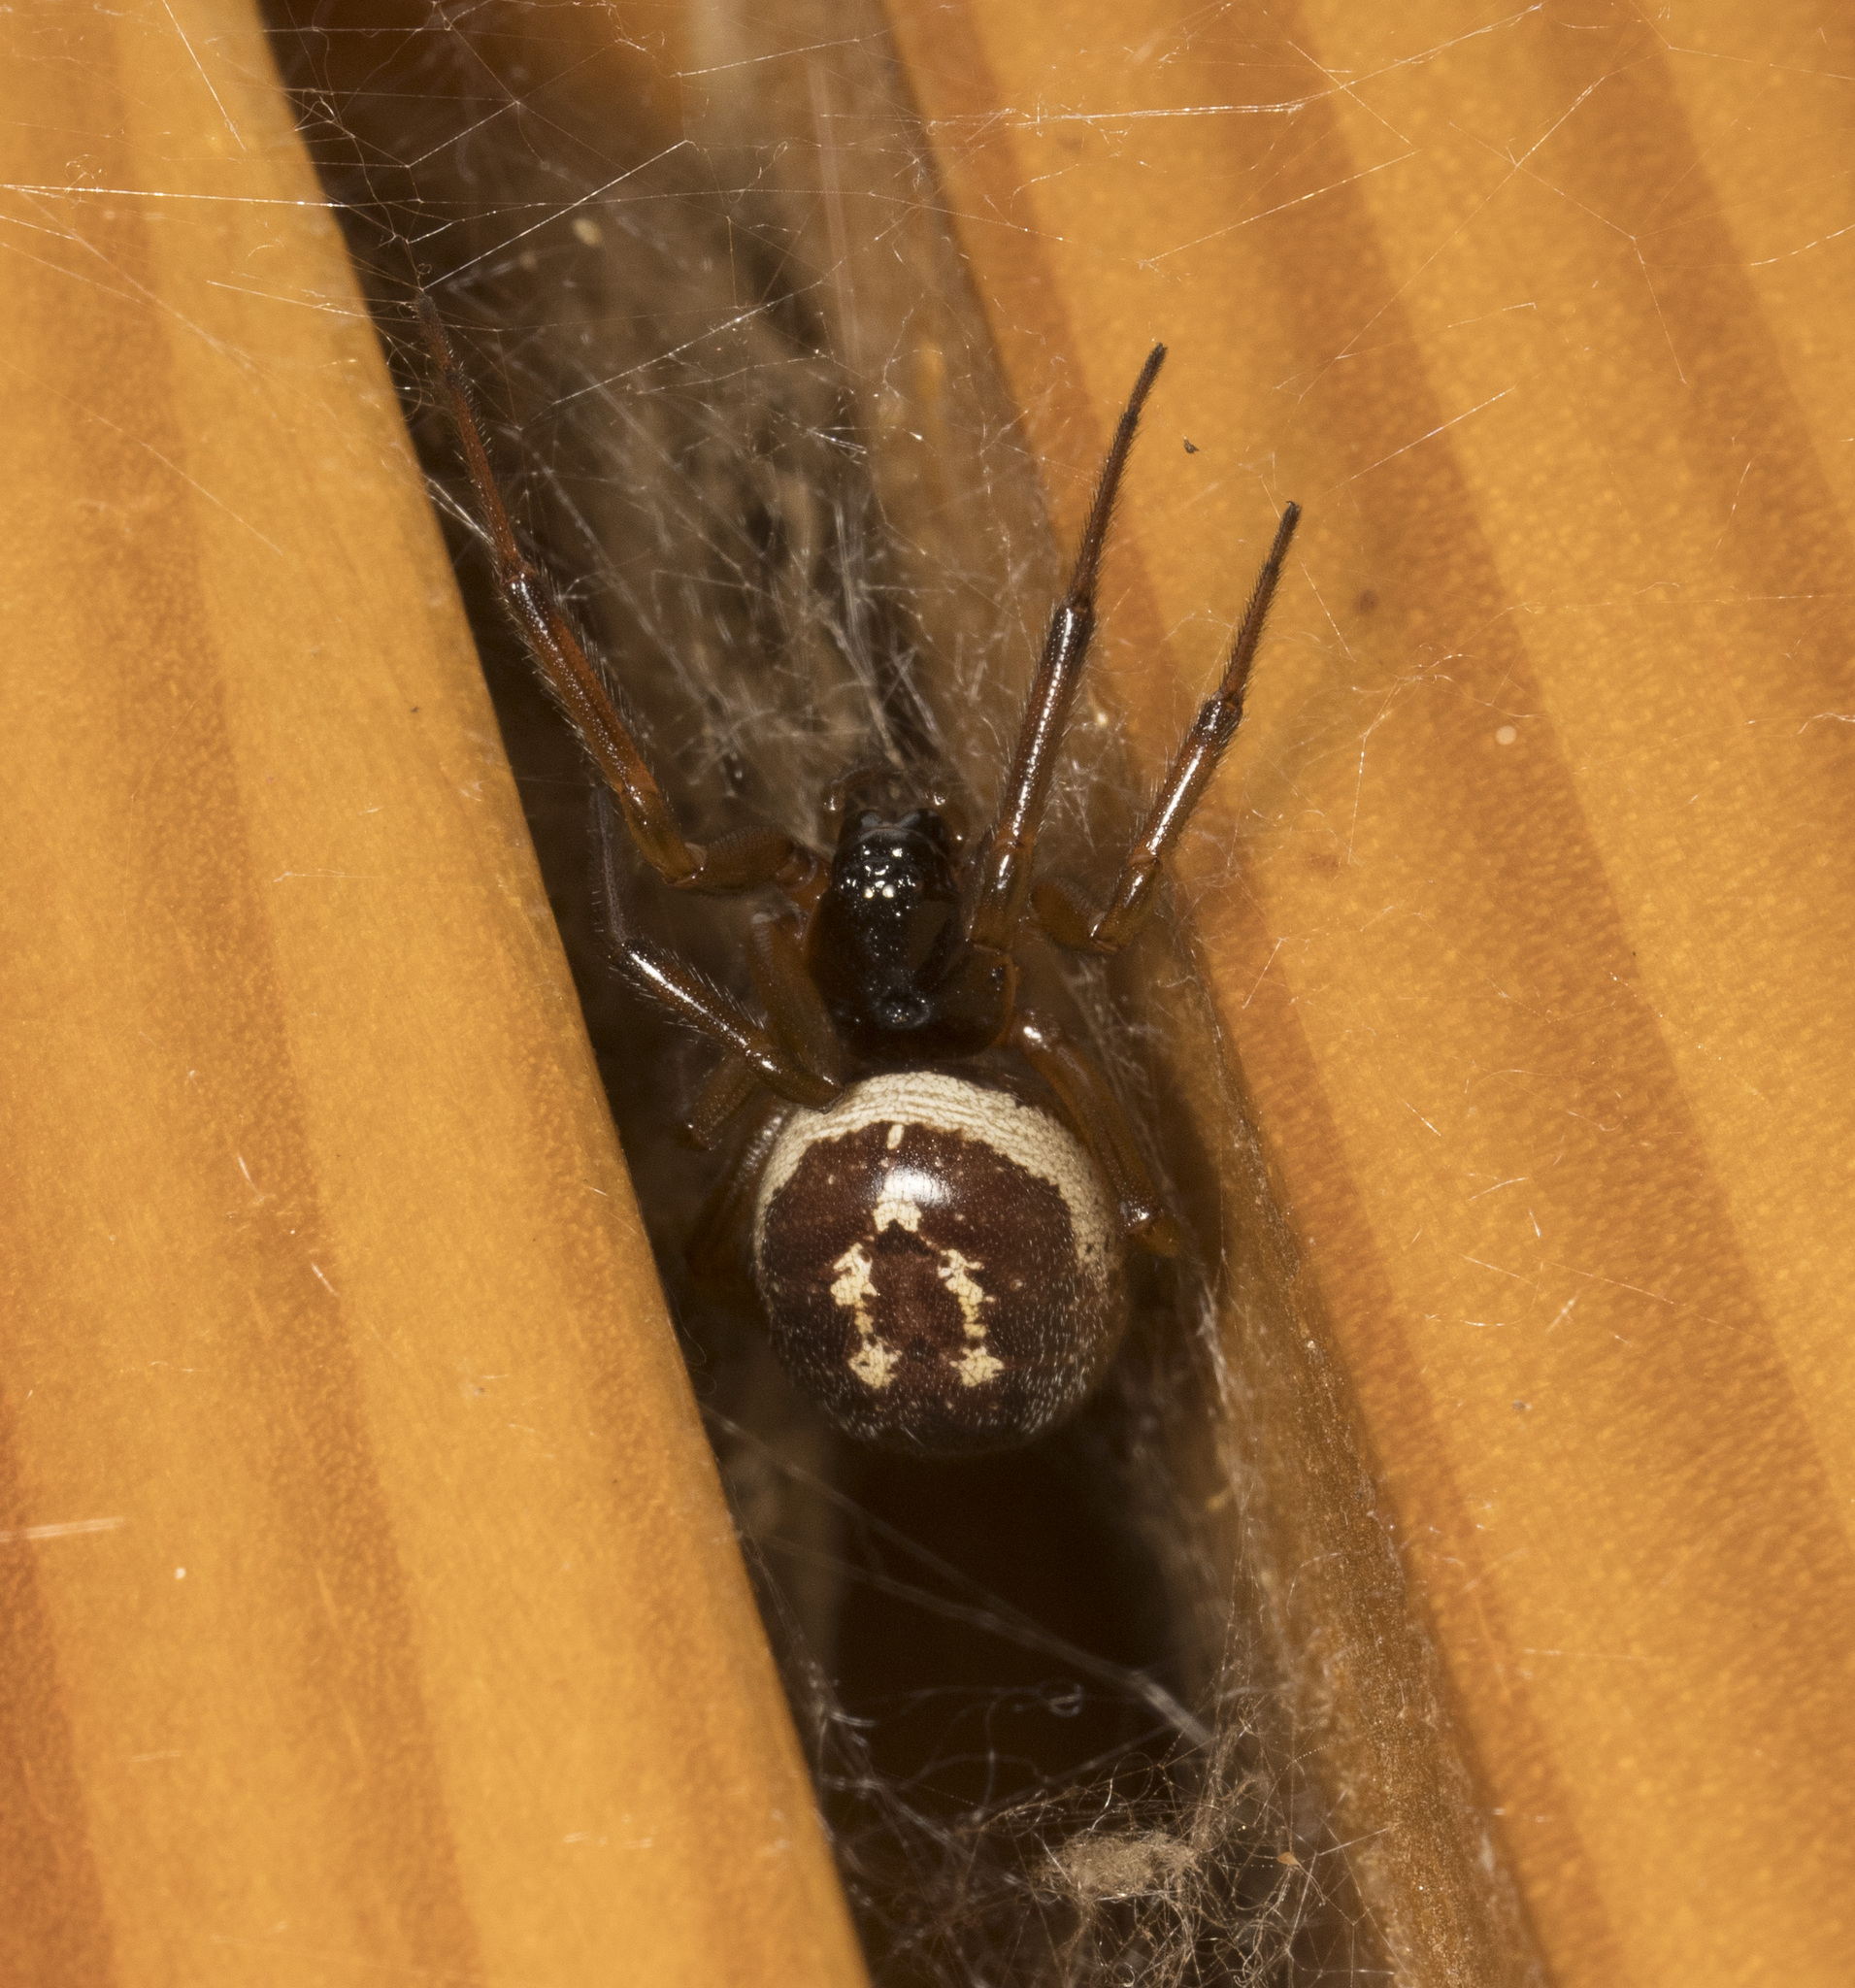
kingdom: Animalia
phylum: Arthropoda
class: Arachnida
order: Araneae
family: Theridiidae
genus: Steatoda
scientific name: Steatoda nobilis
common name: Cobweb weaver
